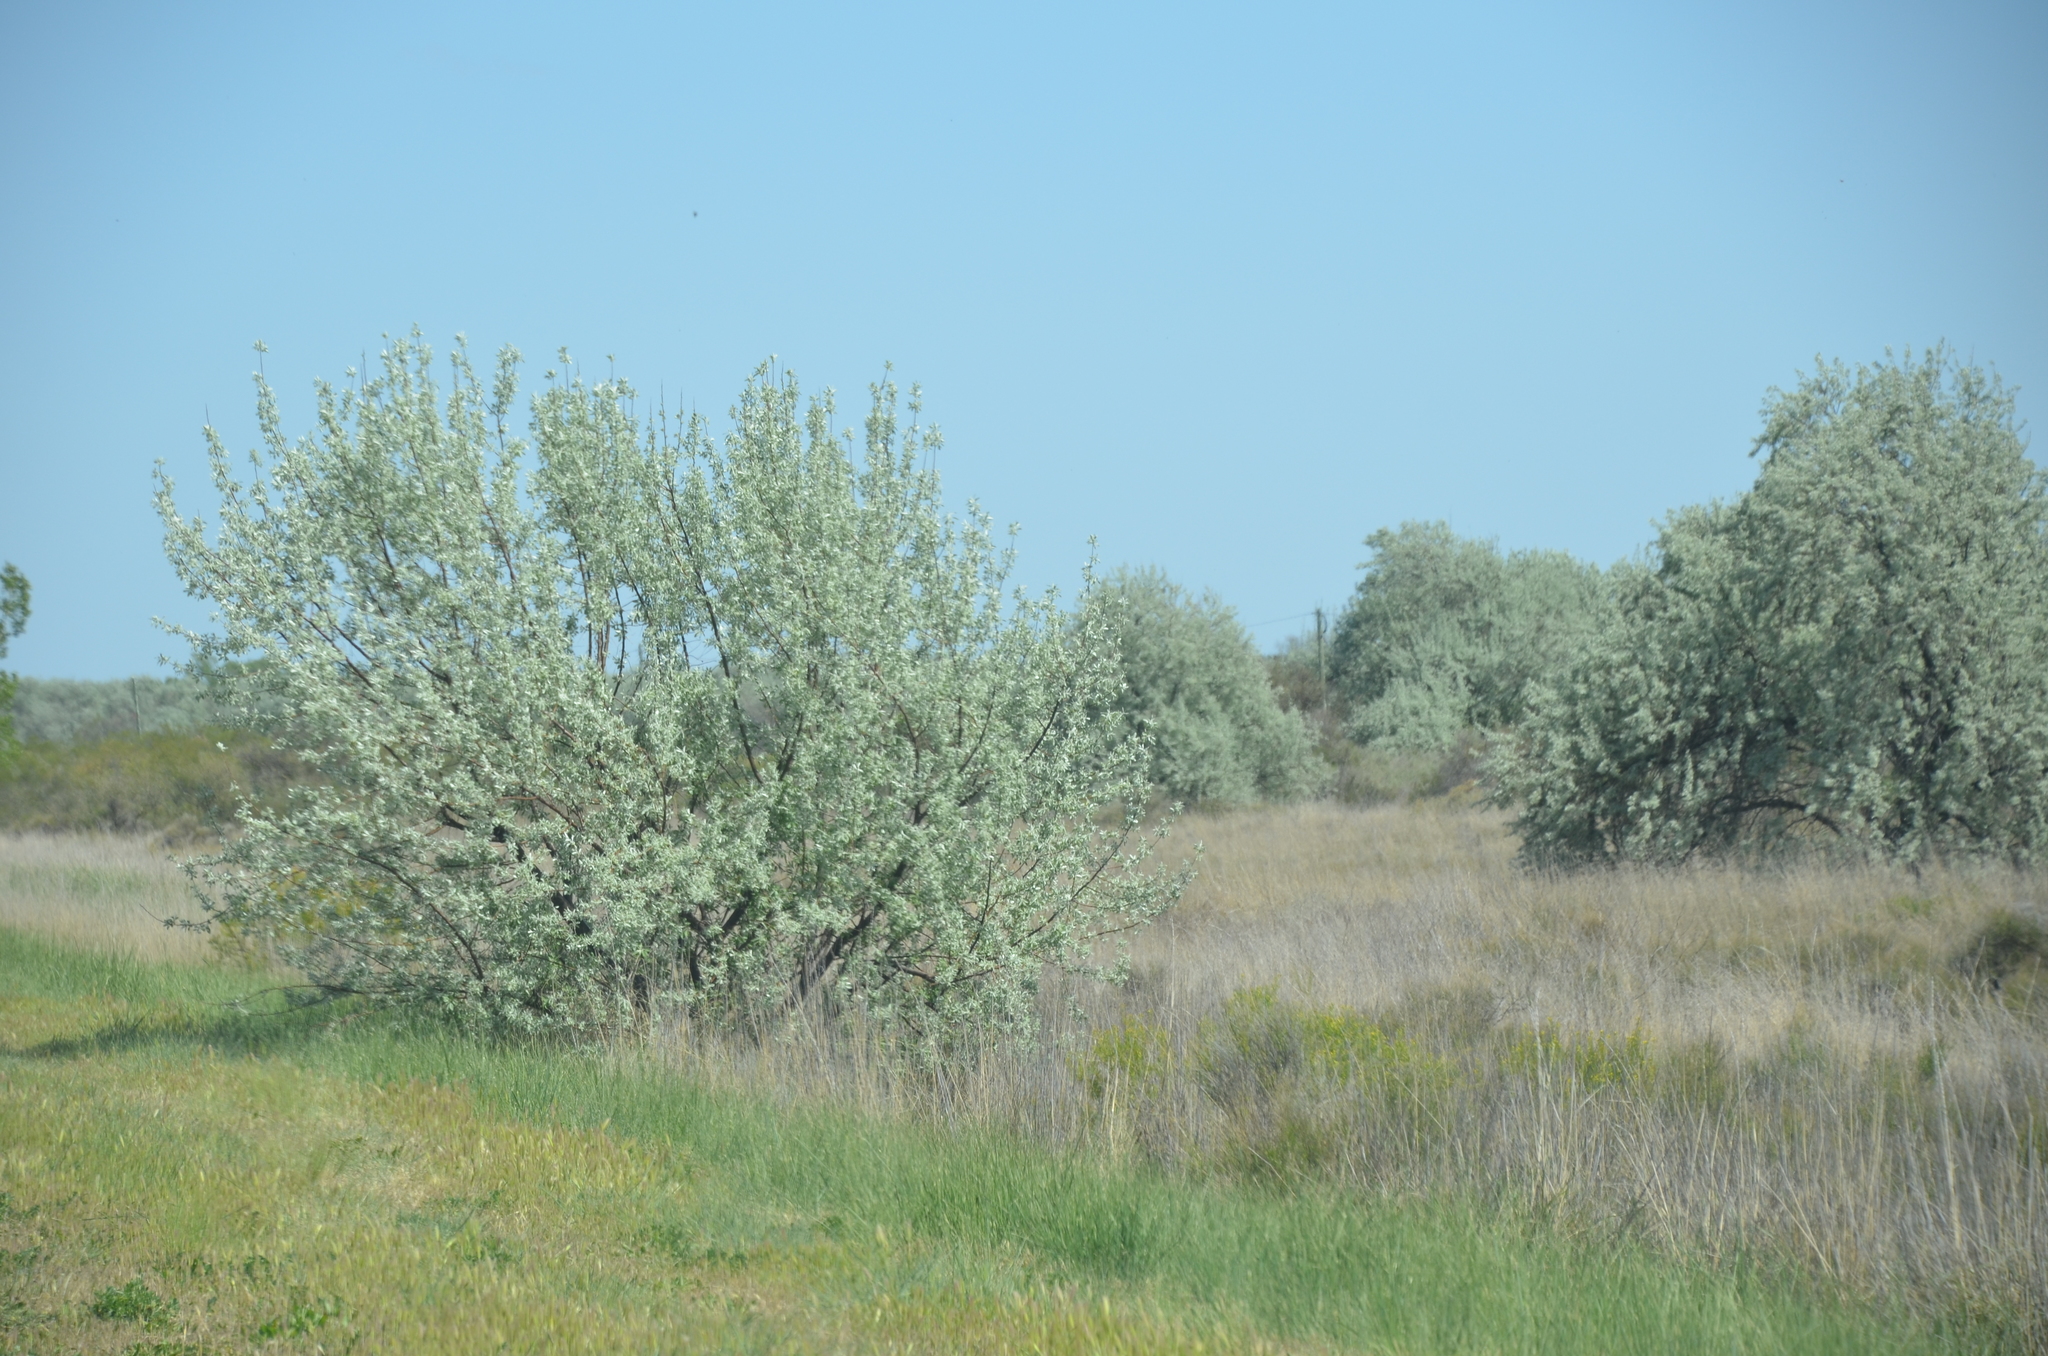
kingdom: Plantae
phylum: Tracheophyta
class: Magnoliopsida
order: Rosales
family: Elaeagnaceae
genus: Elaeagnus
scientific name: Elaeagnus angustifolia
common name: Russian olive
